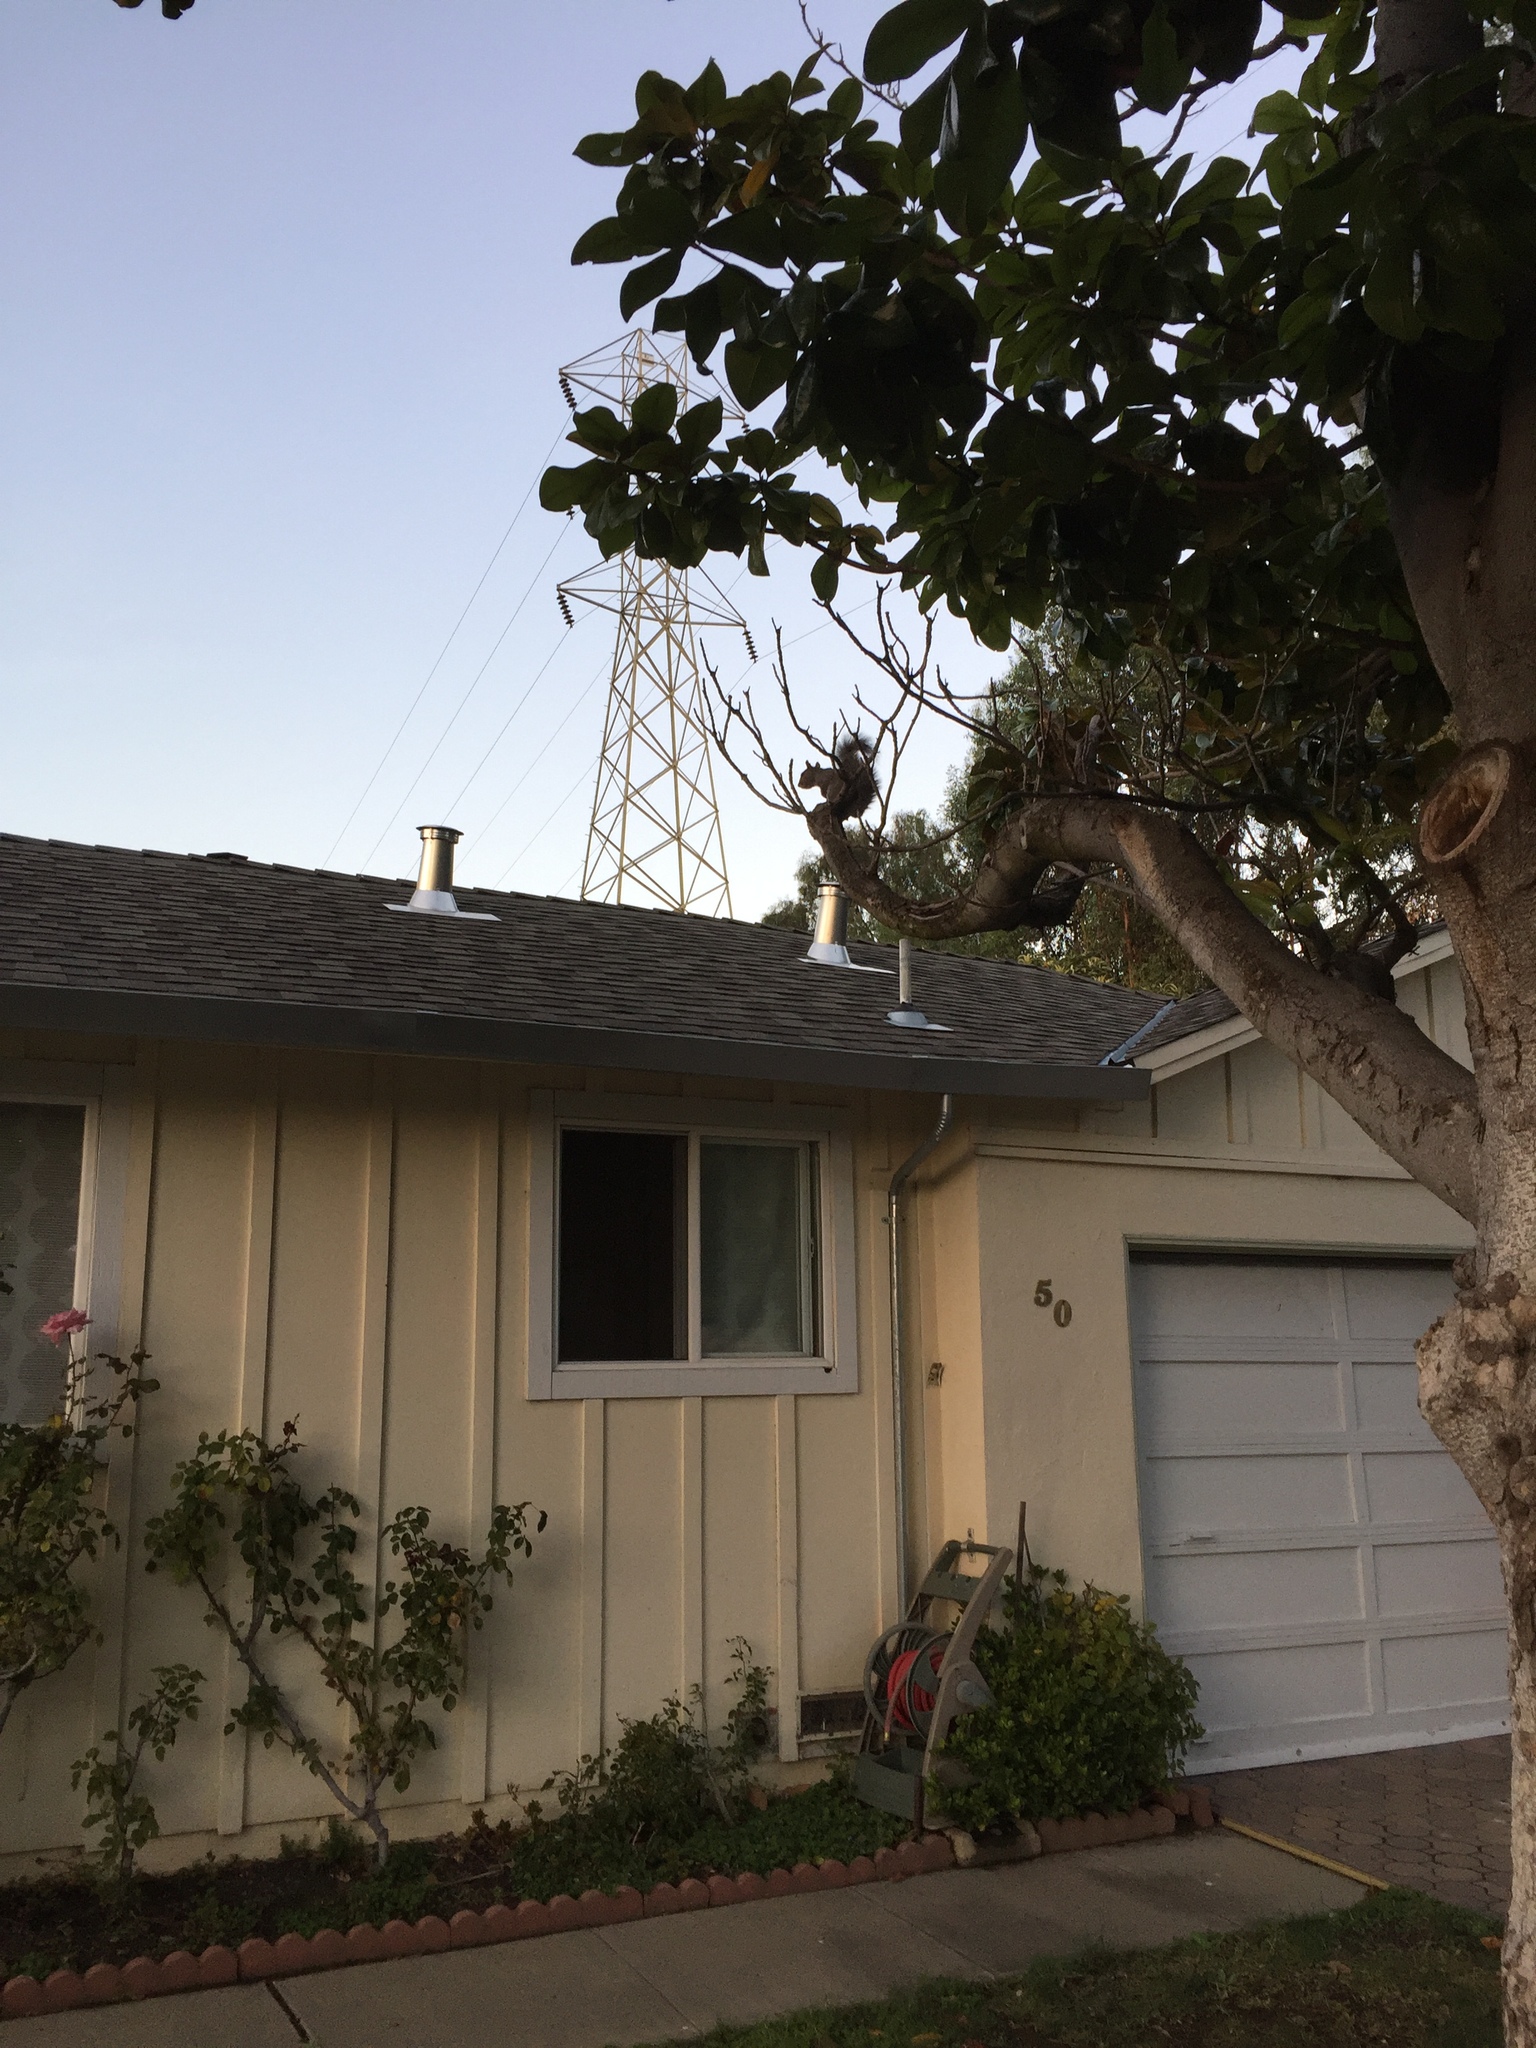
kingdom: Animalia
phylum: Chordata
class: Mammalia
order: Rodentia
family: Sciuridae
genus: Sciurus
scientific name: Sciurus carolinensis
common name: Eastern gray squirrel
